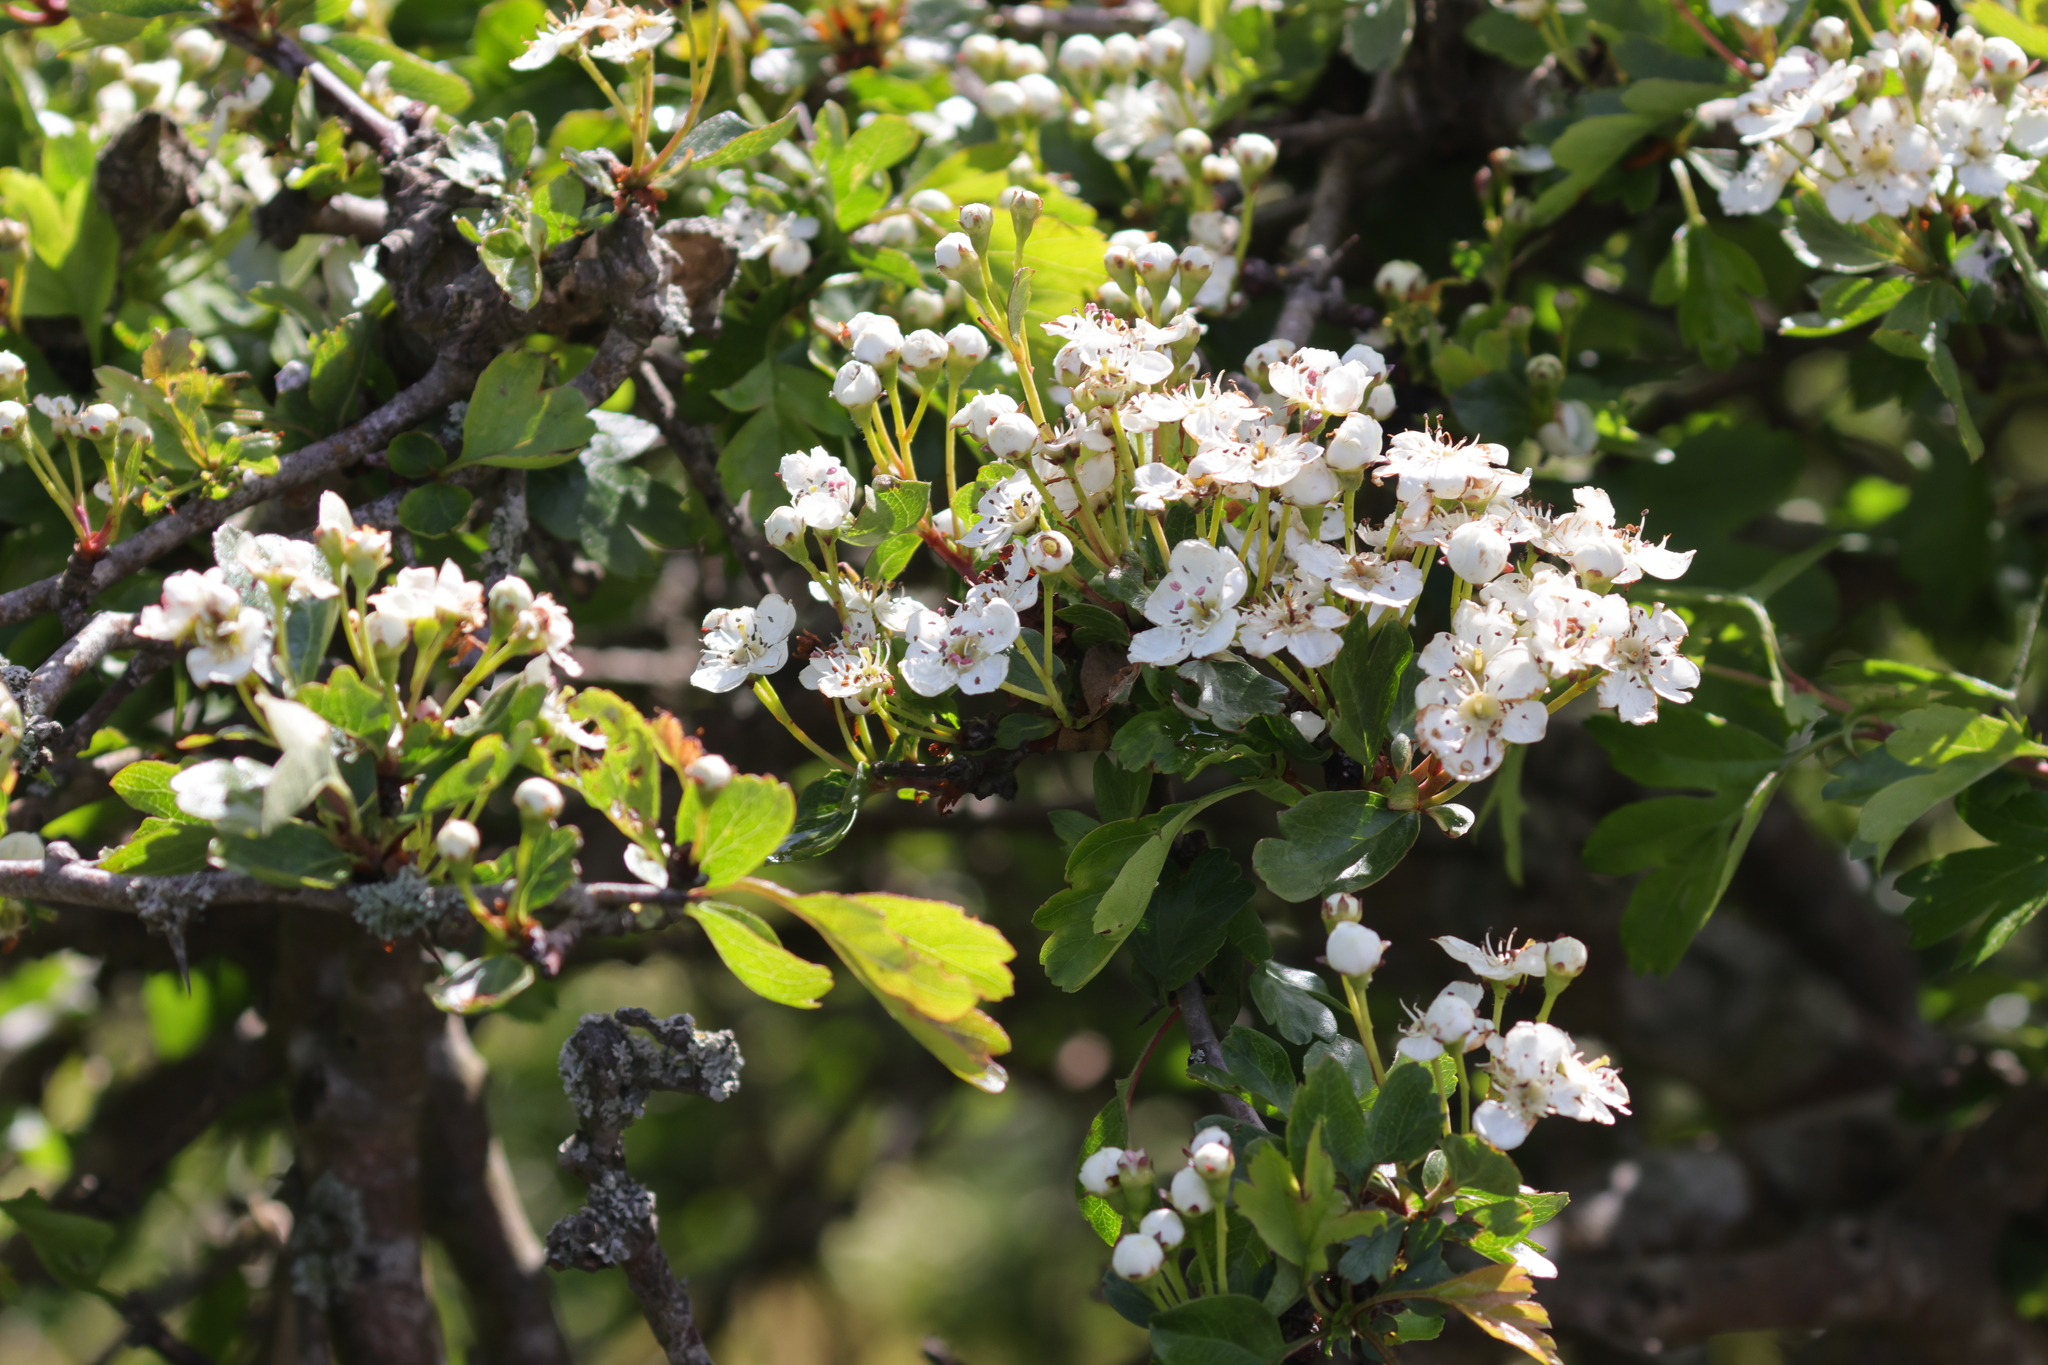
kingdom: Plantae
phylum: Tracheophyta
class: Magnoliopsida
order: Rosales
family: Rosaceae
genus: Crataegus
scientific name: Crataegus monogyna
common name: Hawthorn
